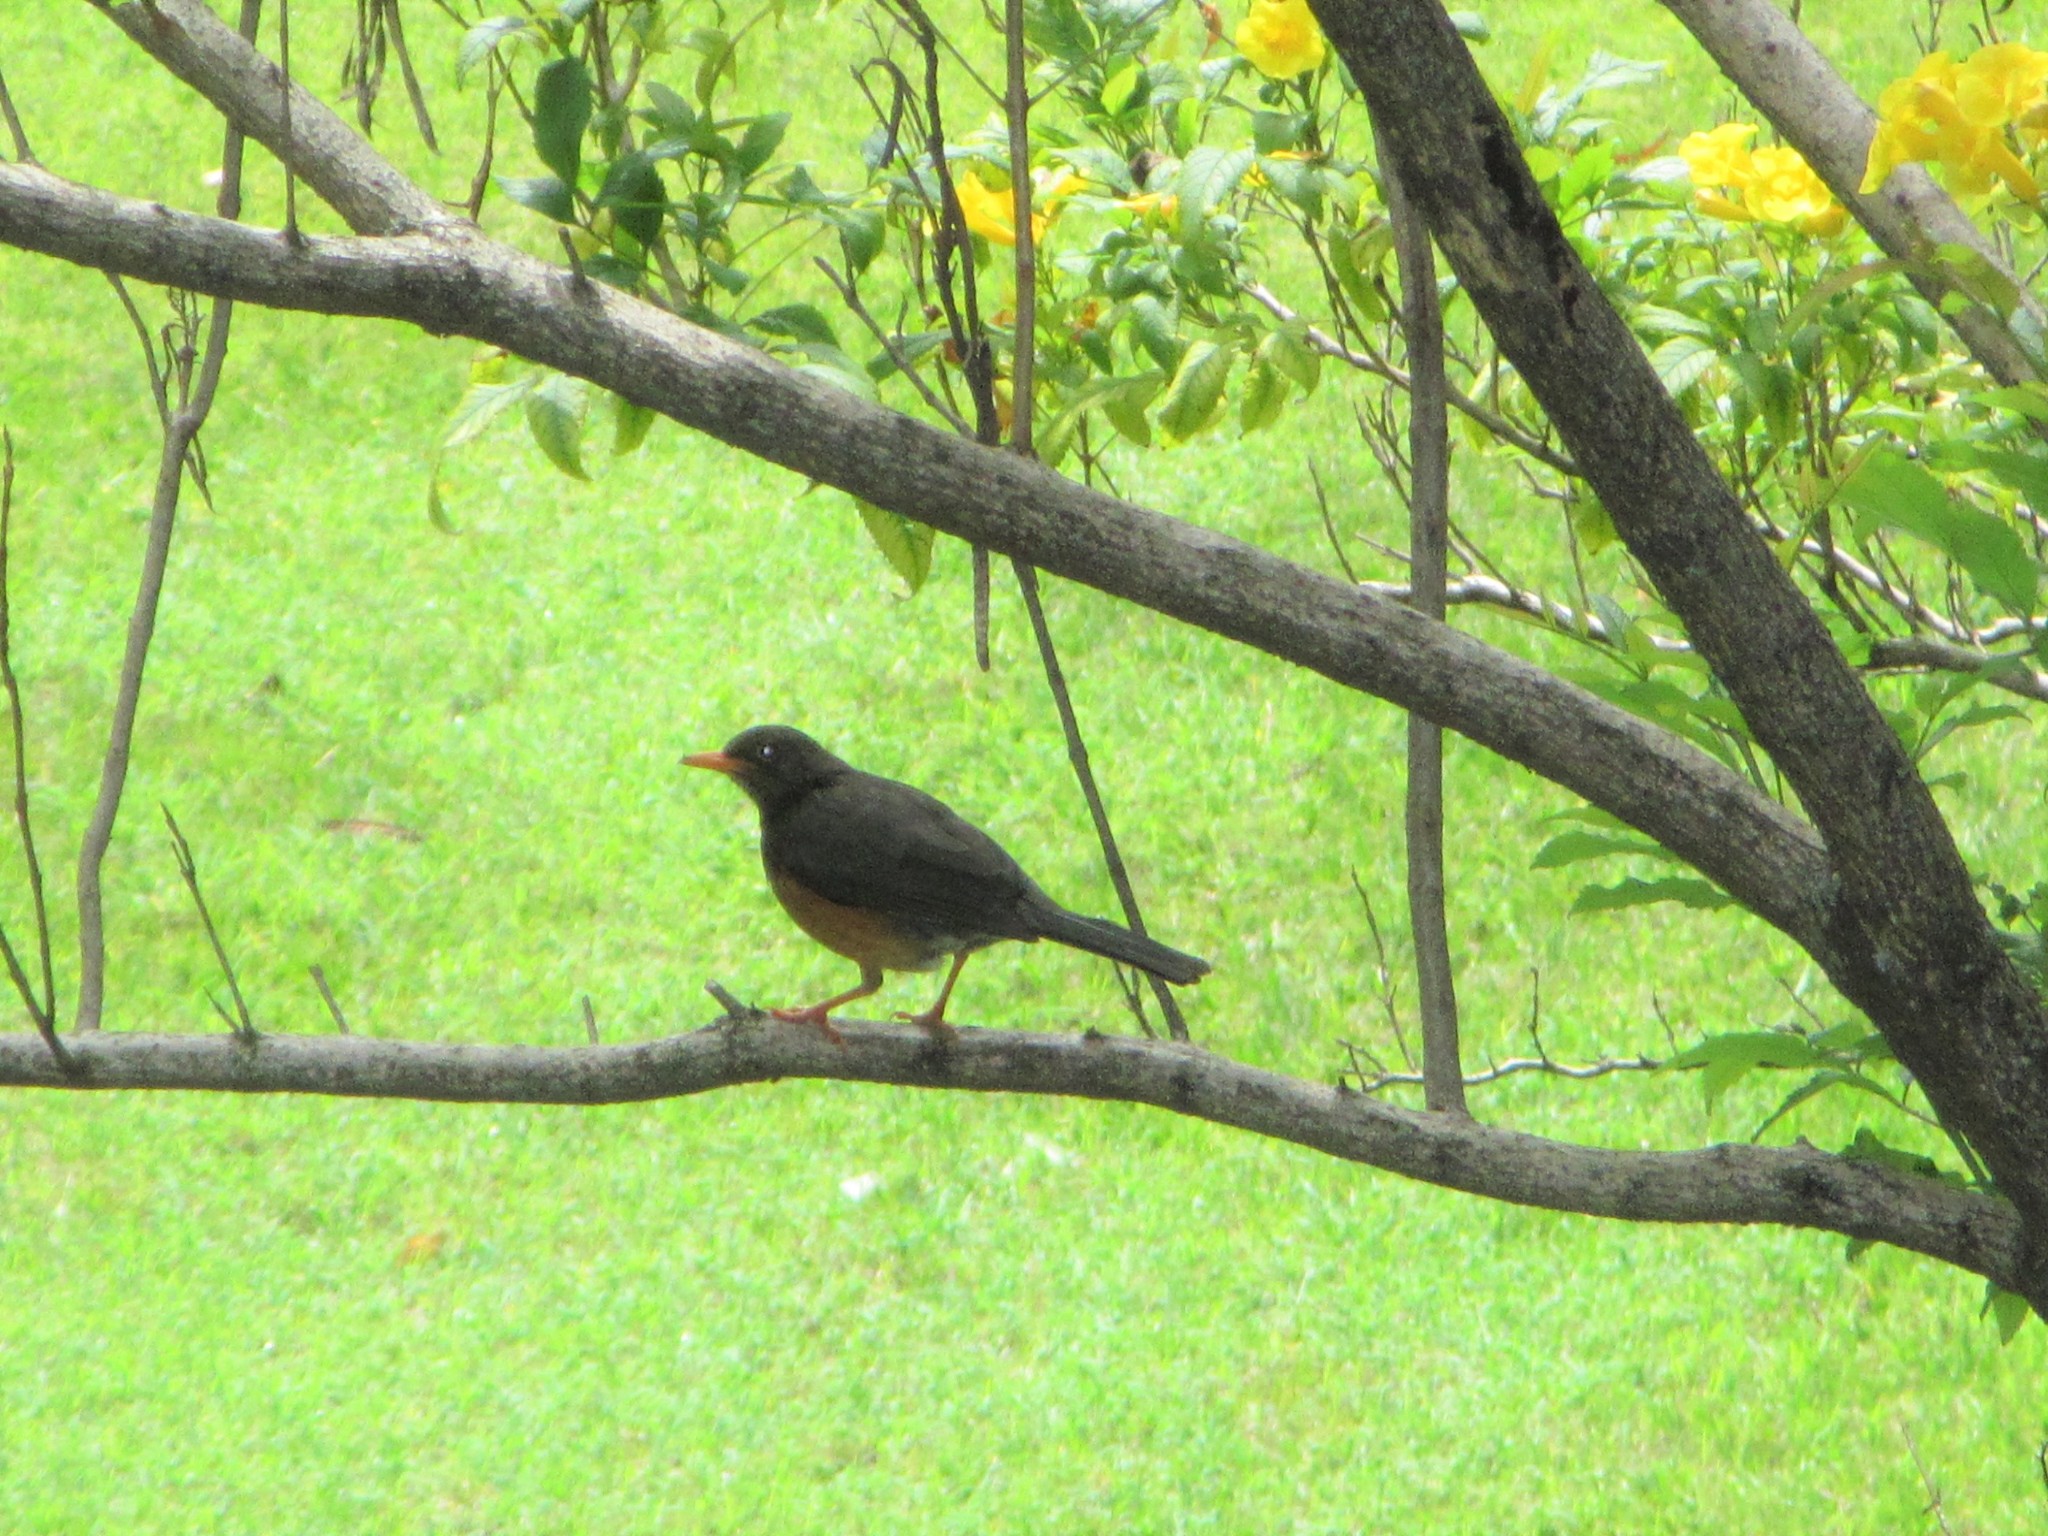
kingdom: Animalia
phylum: Chordata
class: Aves
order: Passeriformes
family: Turdidae
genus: Turdus
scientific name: Turdus abyssinicus
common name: Abyssinian thrush
